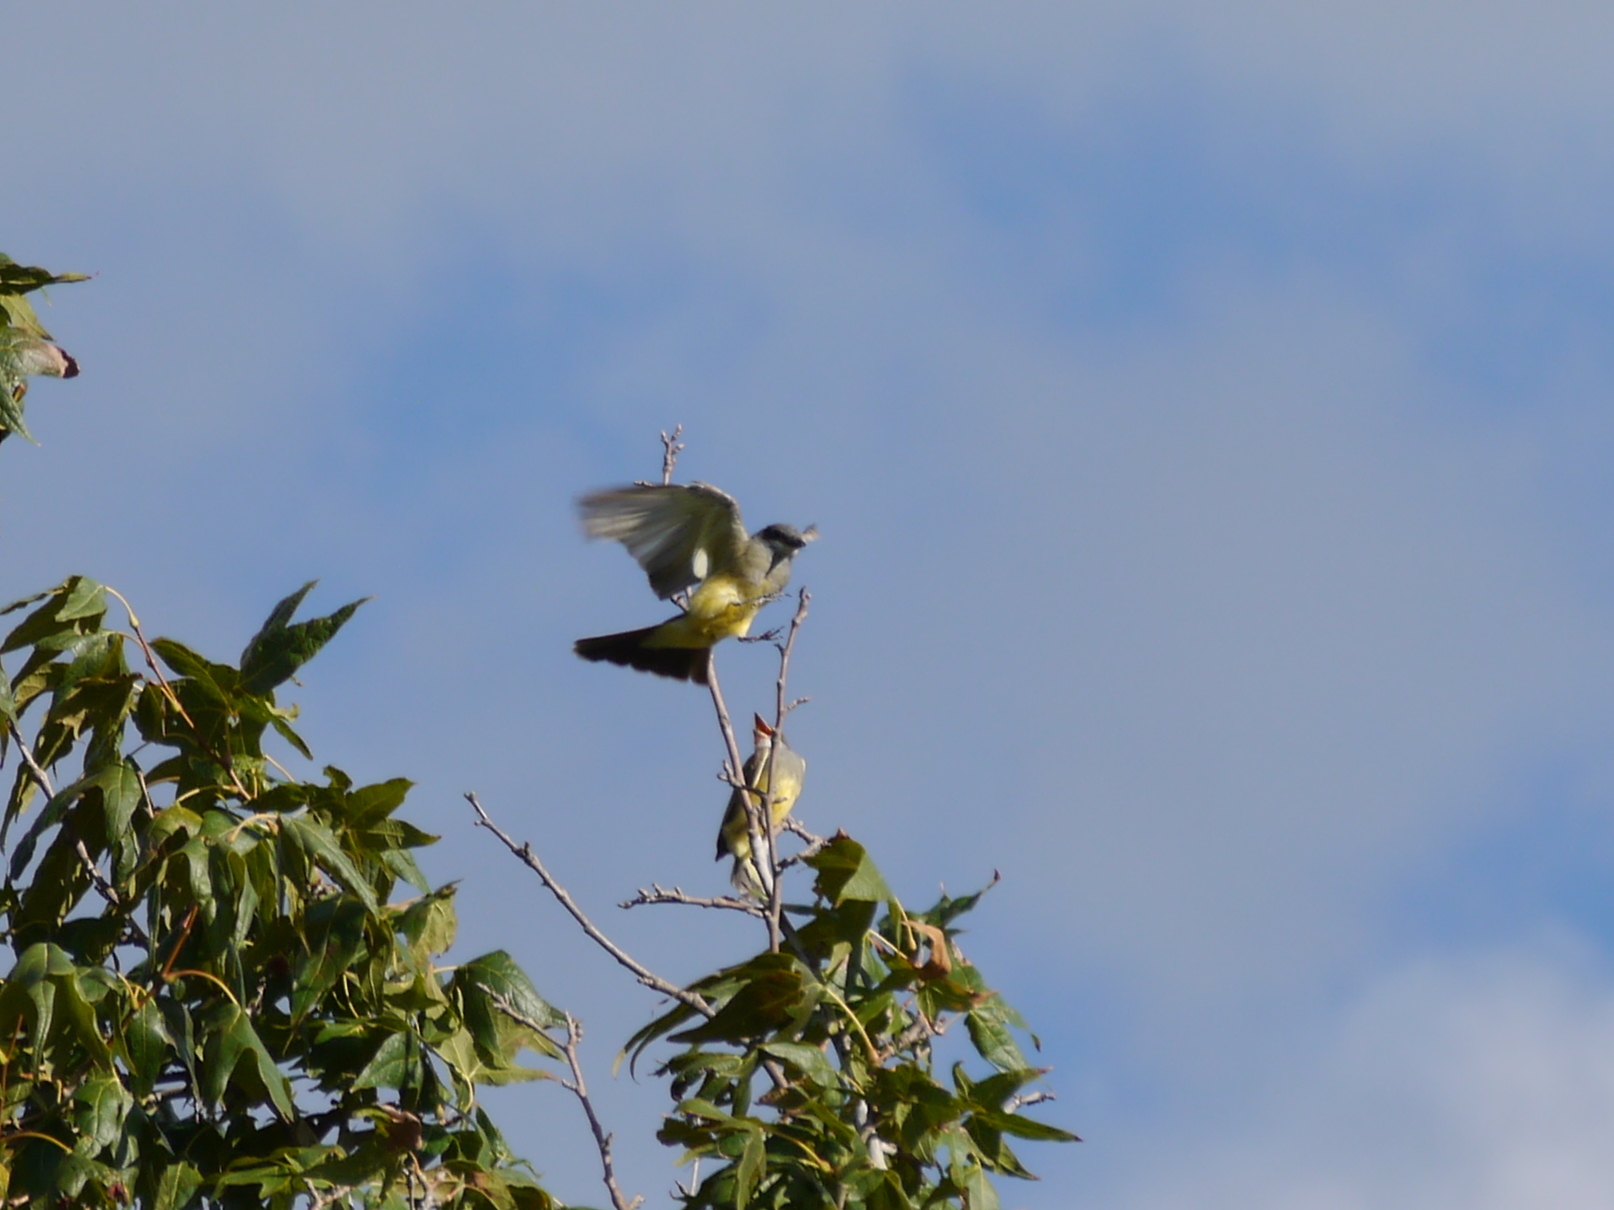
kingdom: Animalia
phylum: Chordata
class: Aves
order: Passeriformes
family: Tyrannidae
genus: Tyrannus
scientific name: Tyrannus verticalis
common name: Western kingbird
